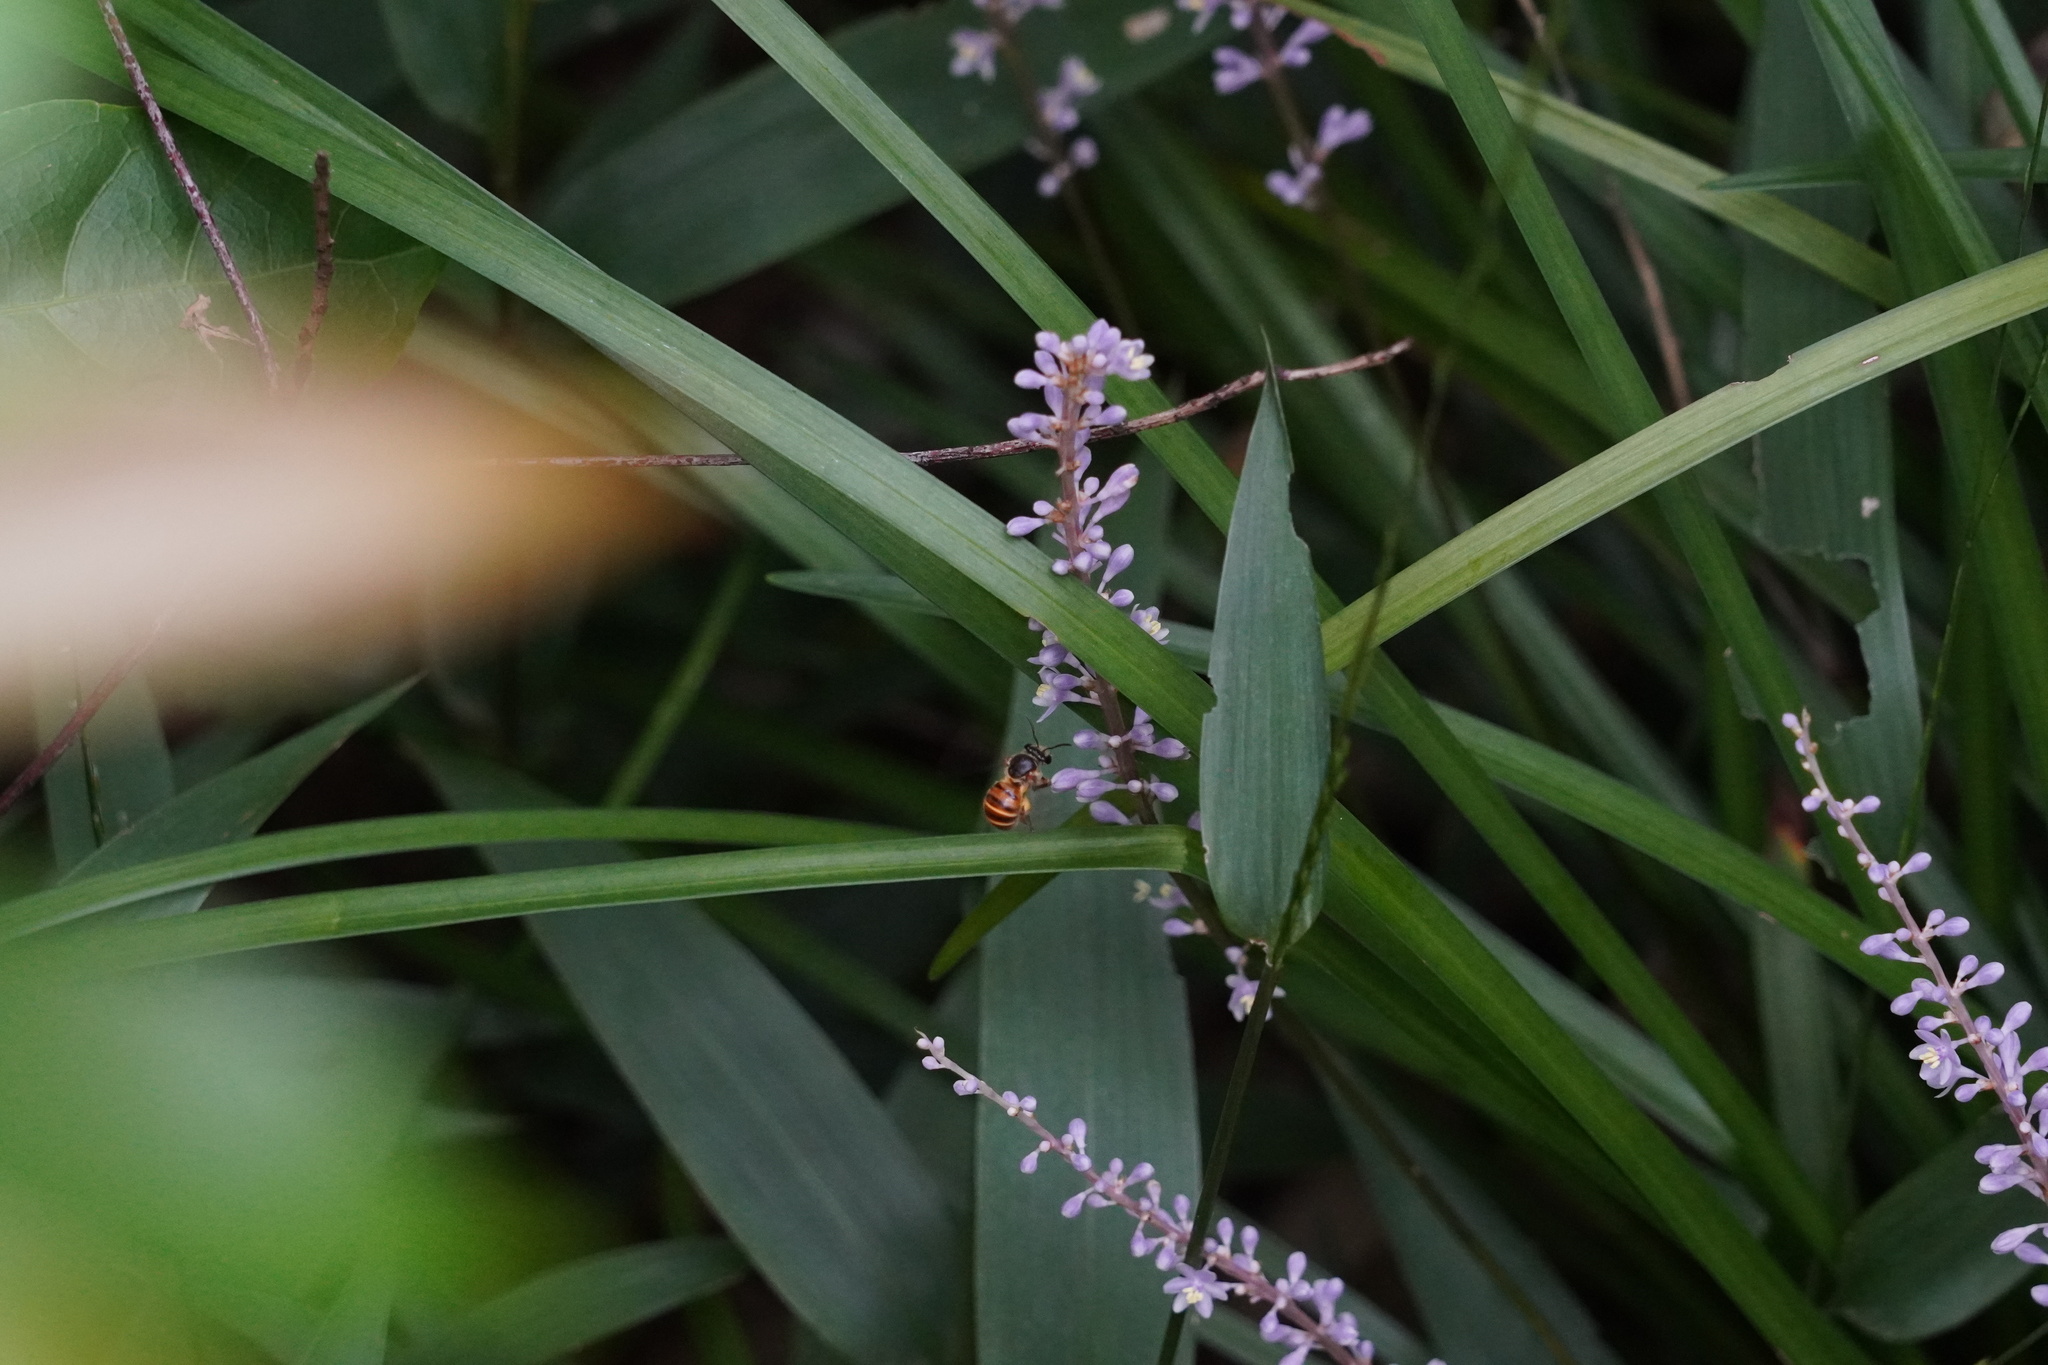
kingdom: Animalia
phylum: Arthropoda
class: Insecta
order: Hymenoptera
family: Halictidae
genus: Nomia
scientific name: Nomia penangensis
